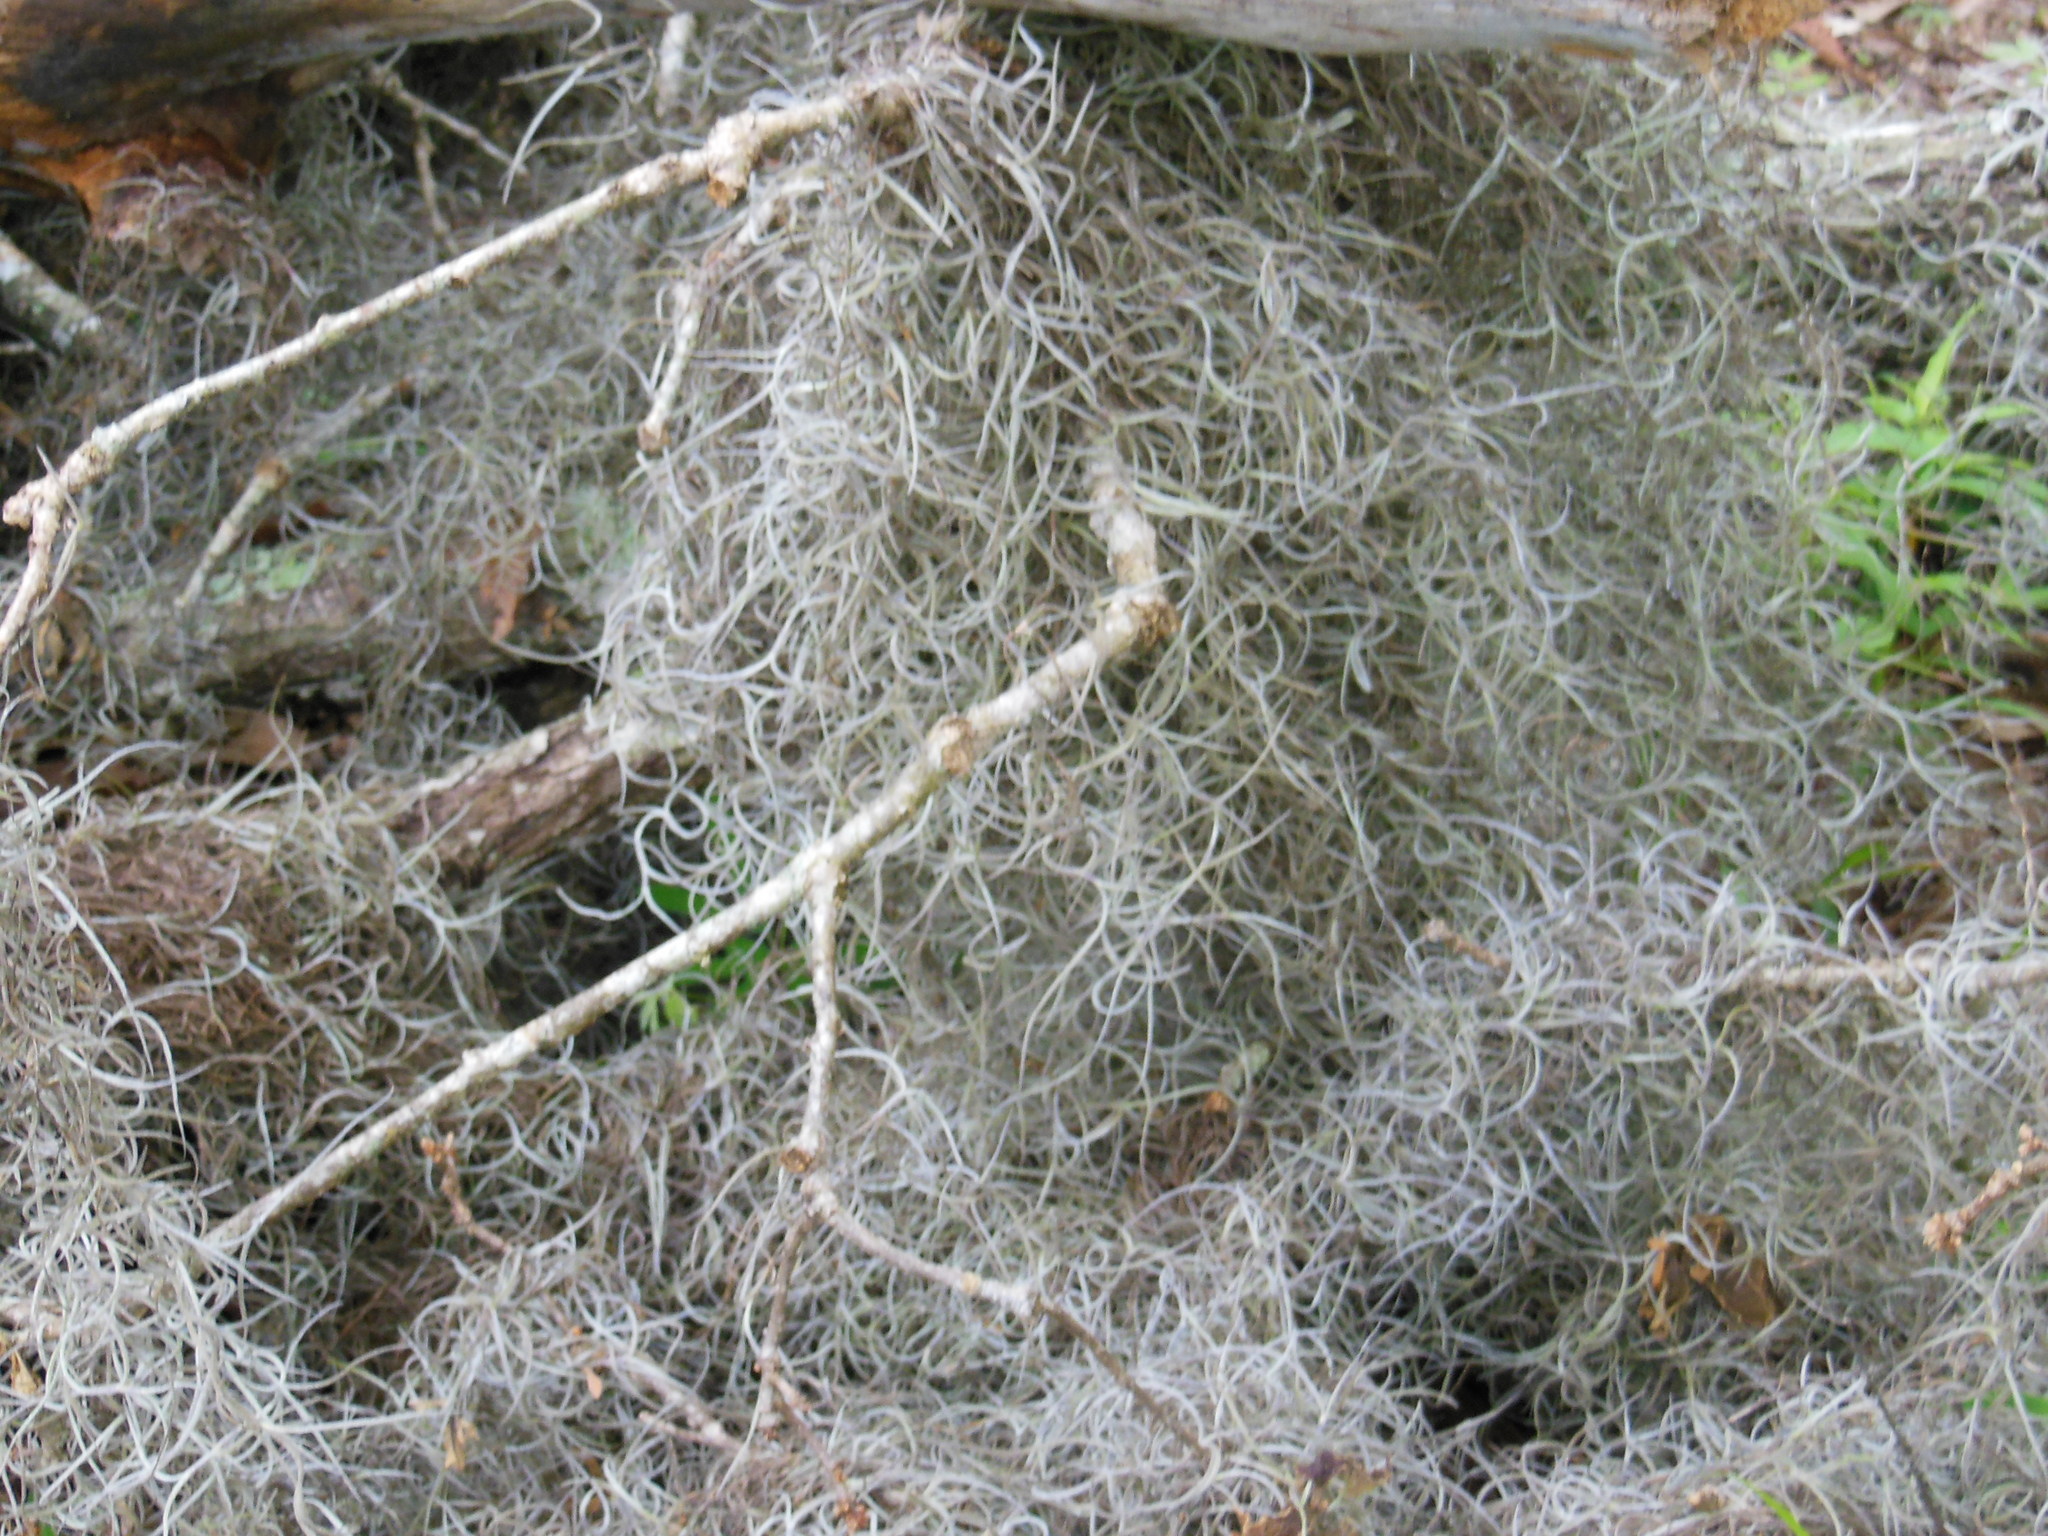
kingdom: Plantae
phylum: Tracheophyta
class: Liliopsida
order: Poales
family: Bromeliaceae
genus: Tillandsia
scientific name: Tillandsia usneoides
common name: Spanish moss
